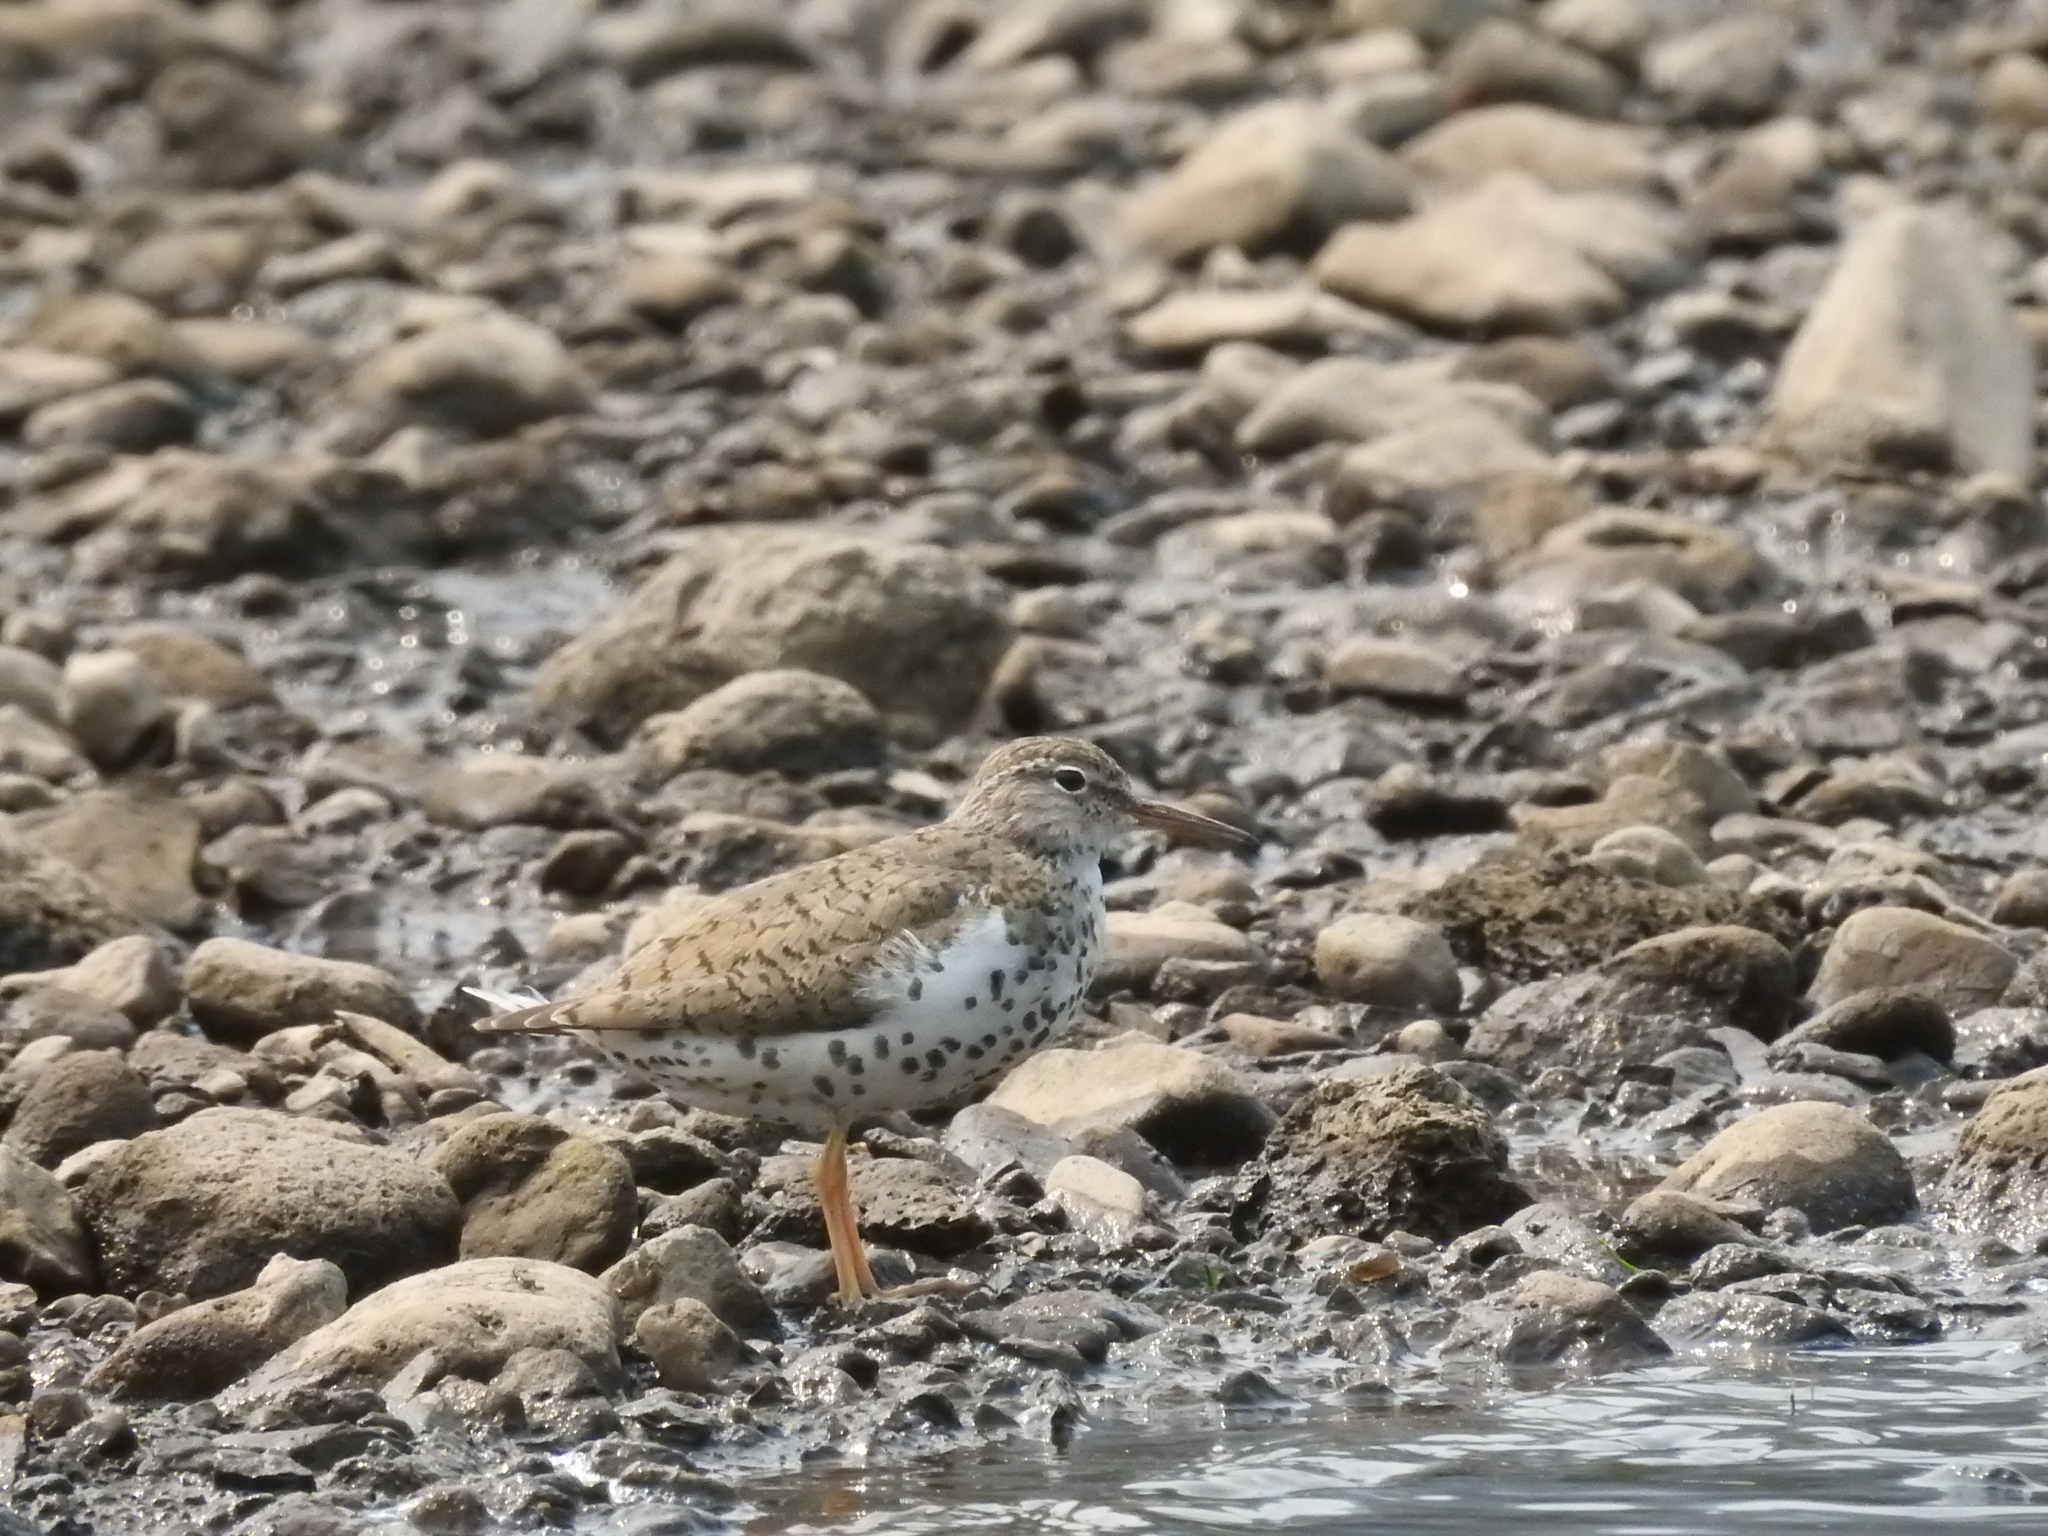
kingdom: Animalia
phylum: Chordata
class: Aves
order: Charadriiformes
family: Scolopacidae
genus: Actitis
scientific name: Actitis macularius
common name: Spotted sandpiper
